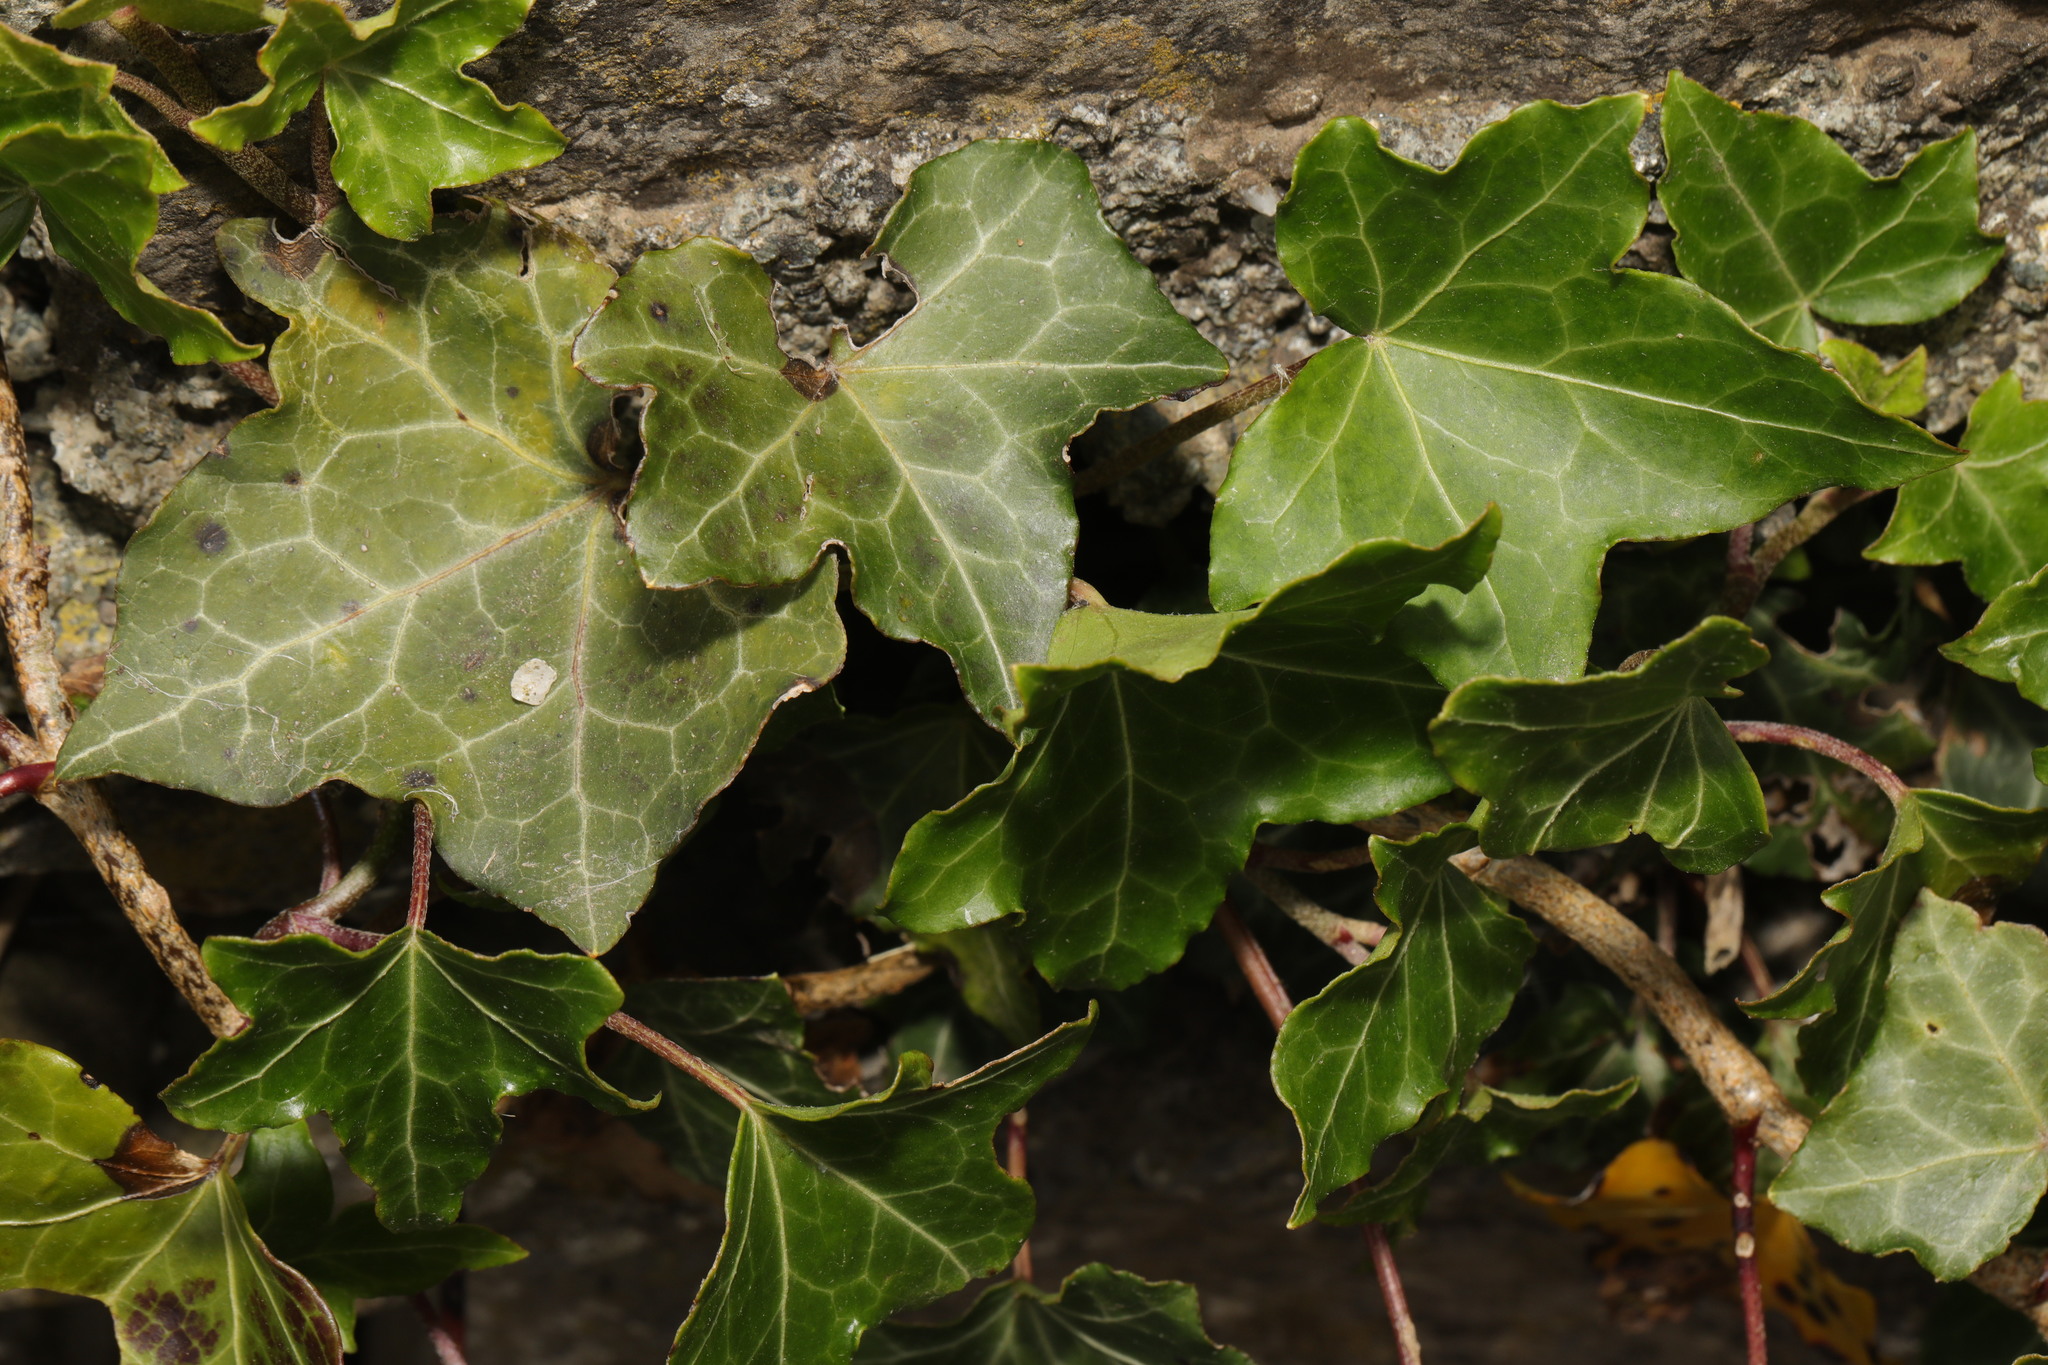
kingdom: Plantae
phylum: Tracheophyta
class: Magnoliopsida
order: Apiales
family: Araliaceae
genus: Hedera
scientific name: Hedera helix
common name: Ivy
